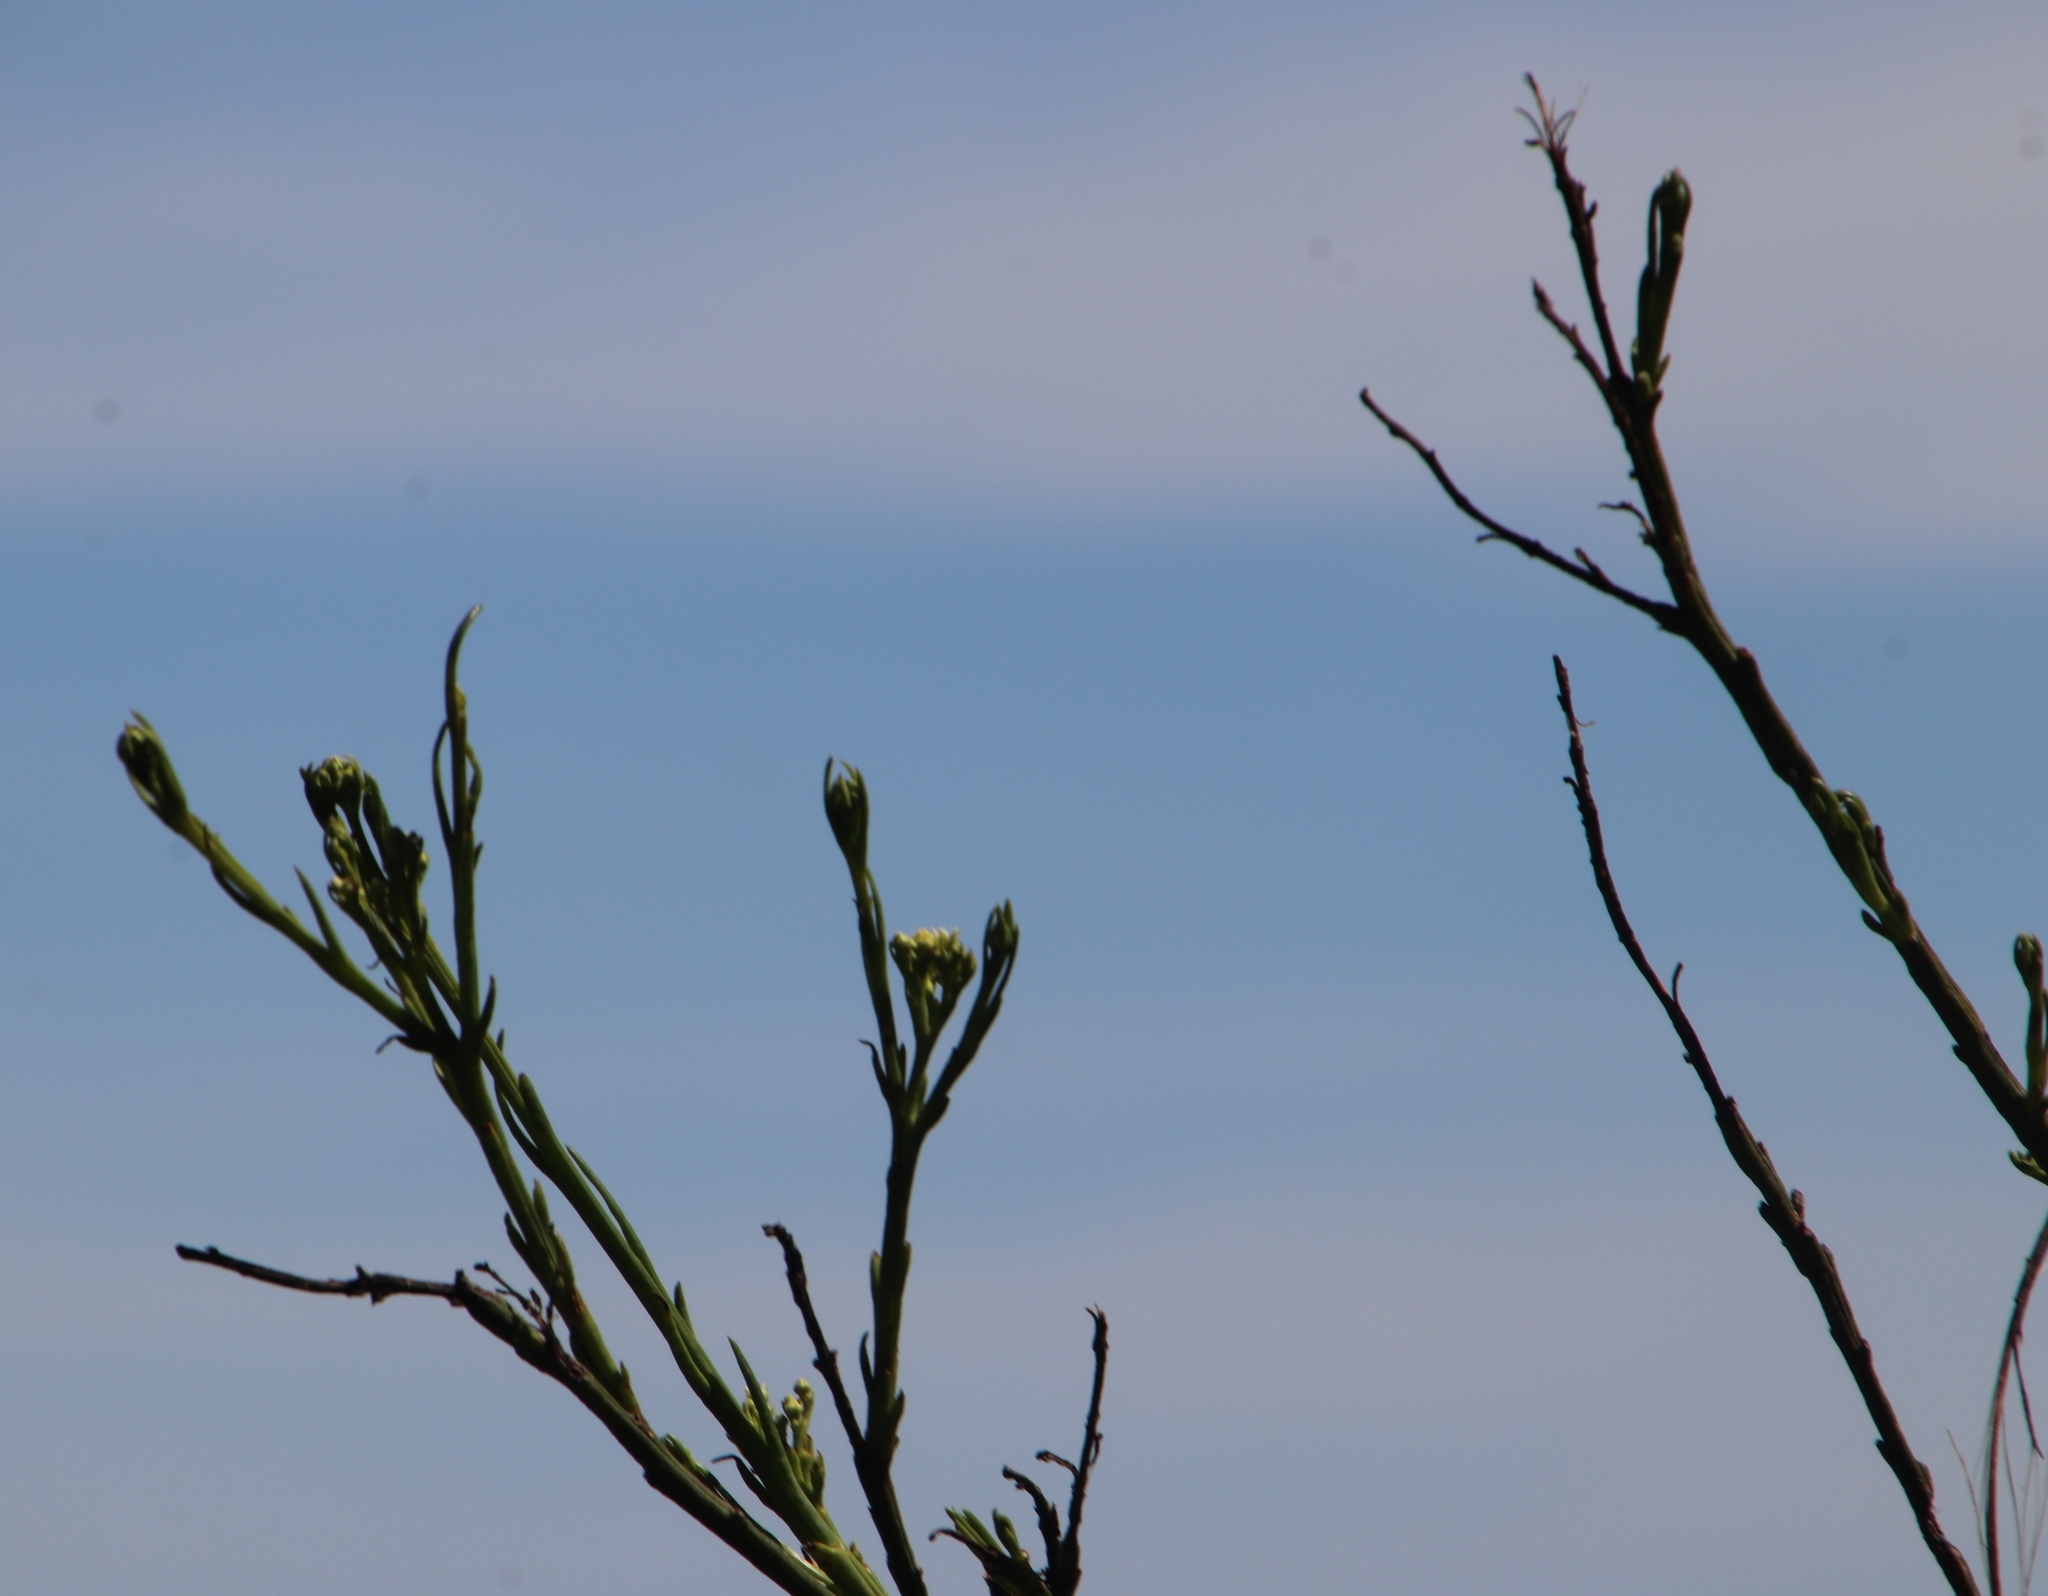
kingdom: Plantae
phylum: Tracheophyta
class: Magnoliopsida
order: Santalales
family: Thesiaceae
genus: Thesium
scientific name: Thesium strictum
